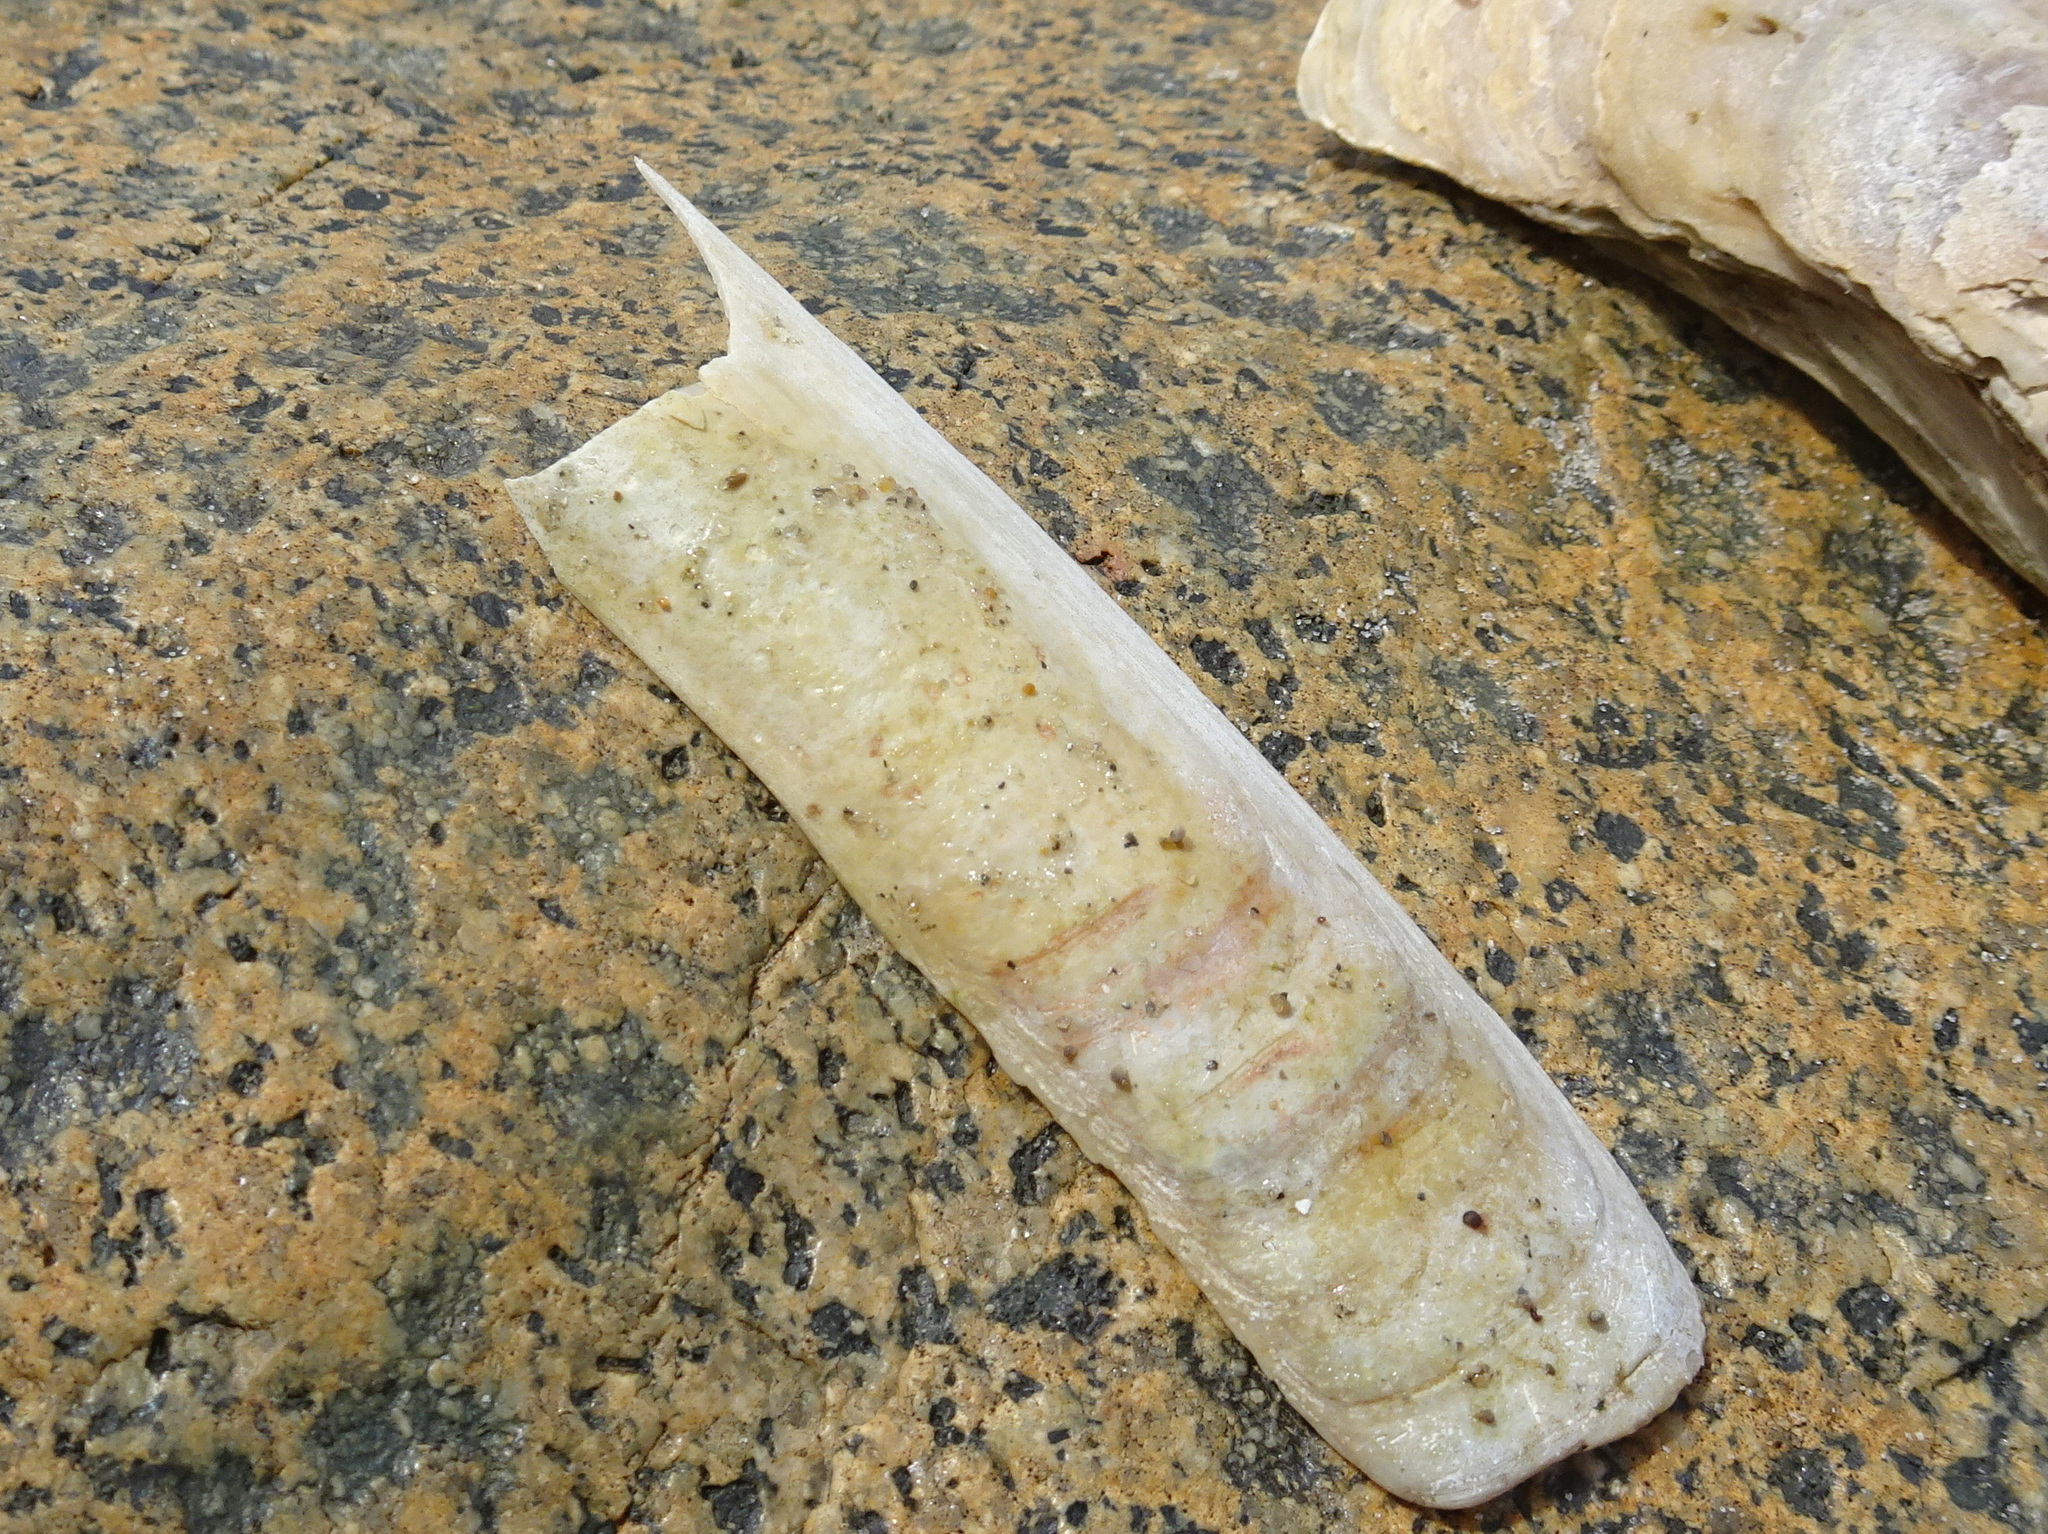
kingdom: Animalia
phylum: Mollusca
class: Bivalvia
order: Adapedonta
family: Pharidae
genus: Ensis
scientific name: Ensis leei
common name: American jack knife clam
